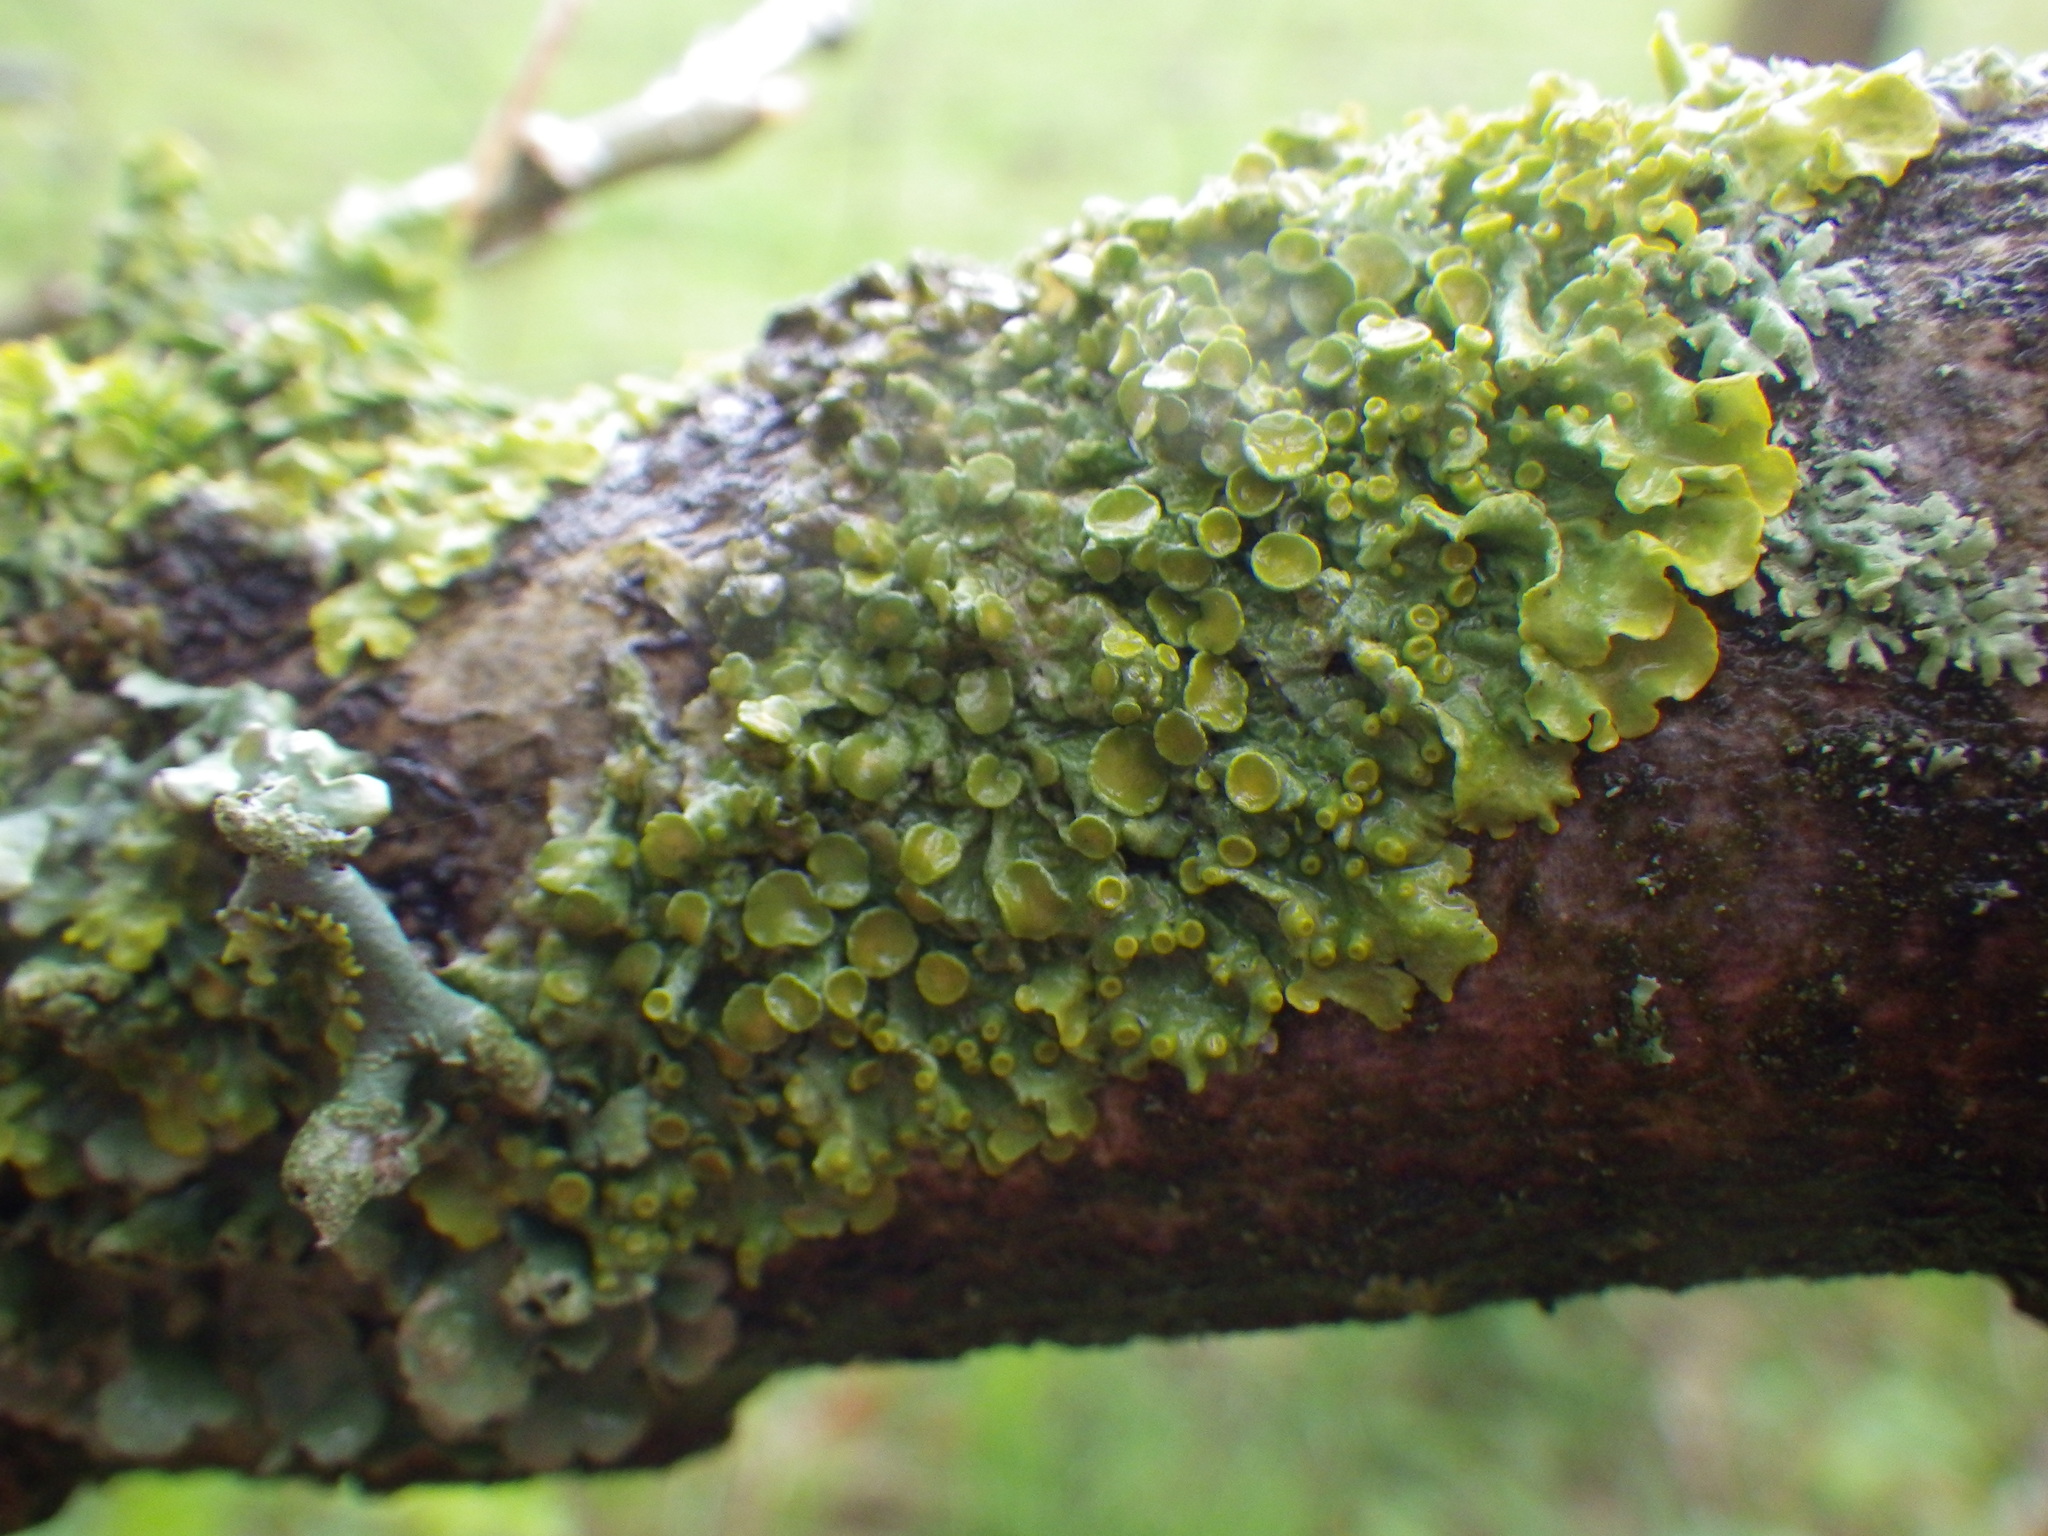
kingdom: Fungi
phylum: Ascomycota
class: Lecanoromycetes
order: Teloschistales
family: Teloschistaceae
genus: Xanthoria
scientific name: Xanthoria parietina
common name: Common orange lichen
